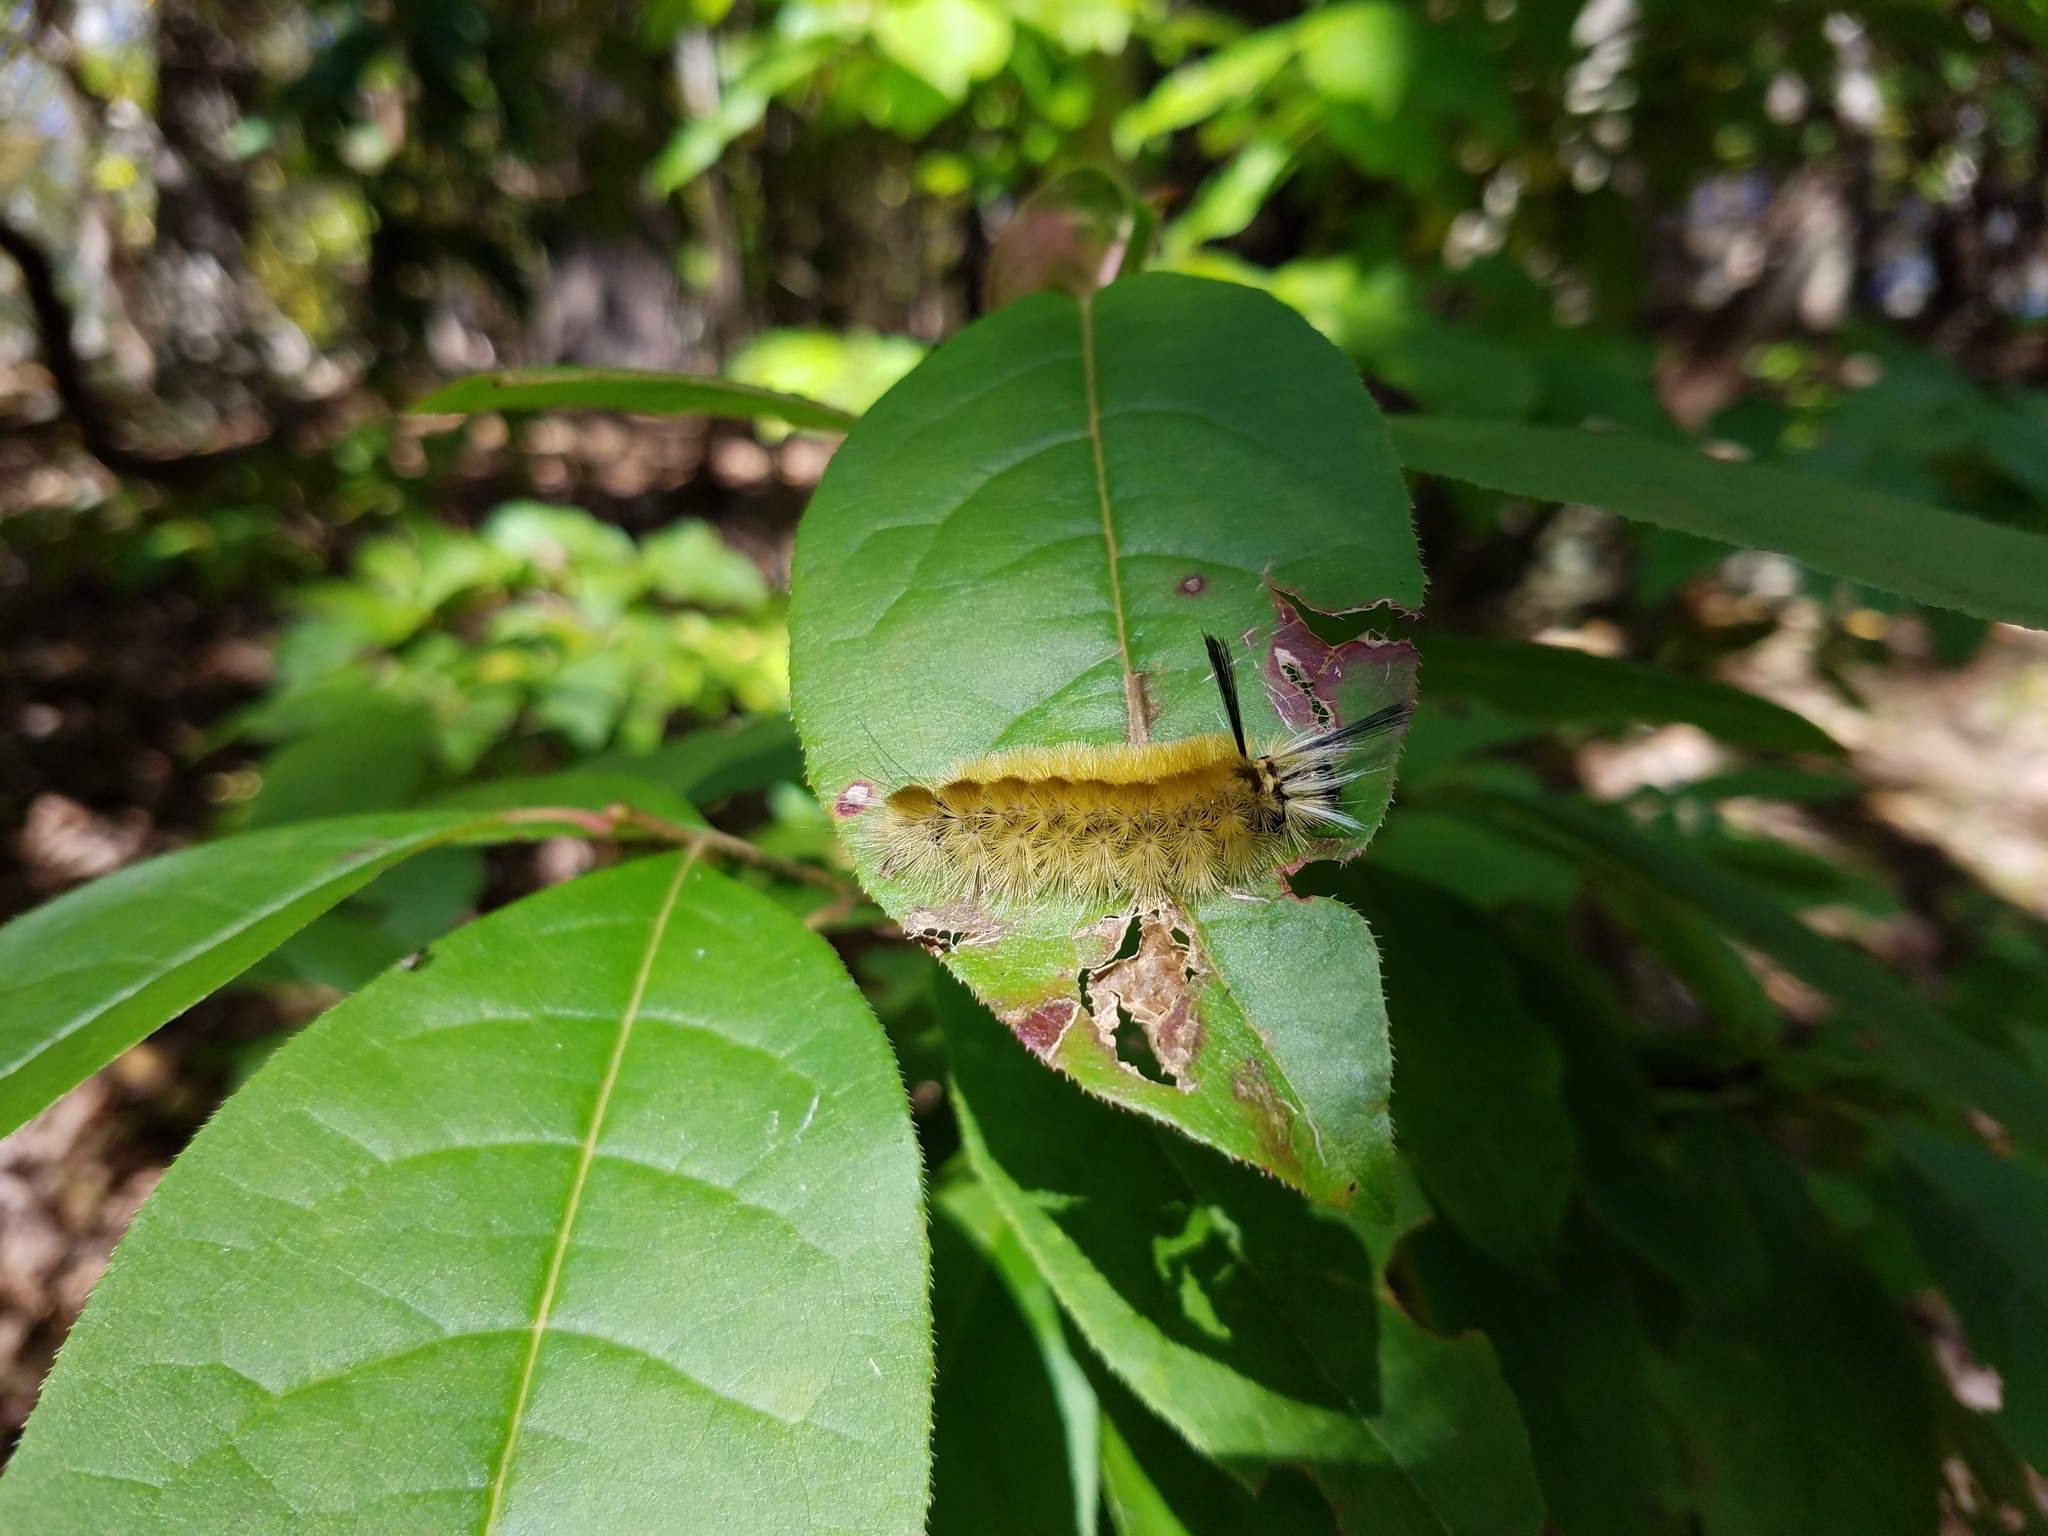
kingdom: Animalia
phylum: Arthropoda
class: Insecta
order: Lepidoptera
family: Erebidae
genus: Halysidota
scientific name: Halysidota tessellaris
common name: Banded tussock moth
